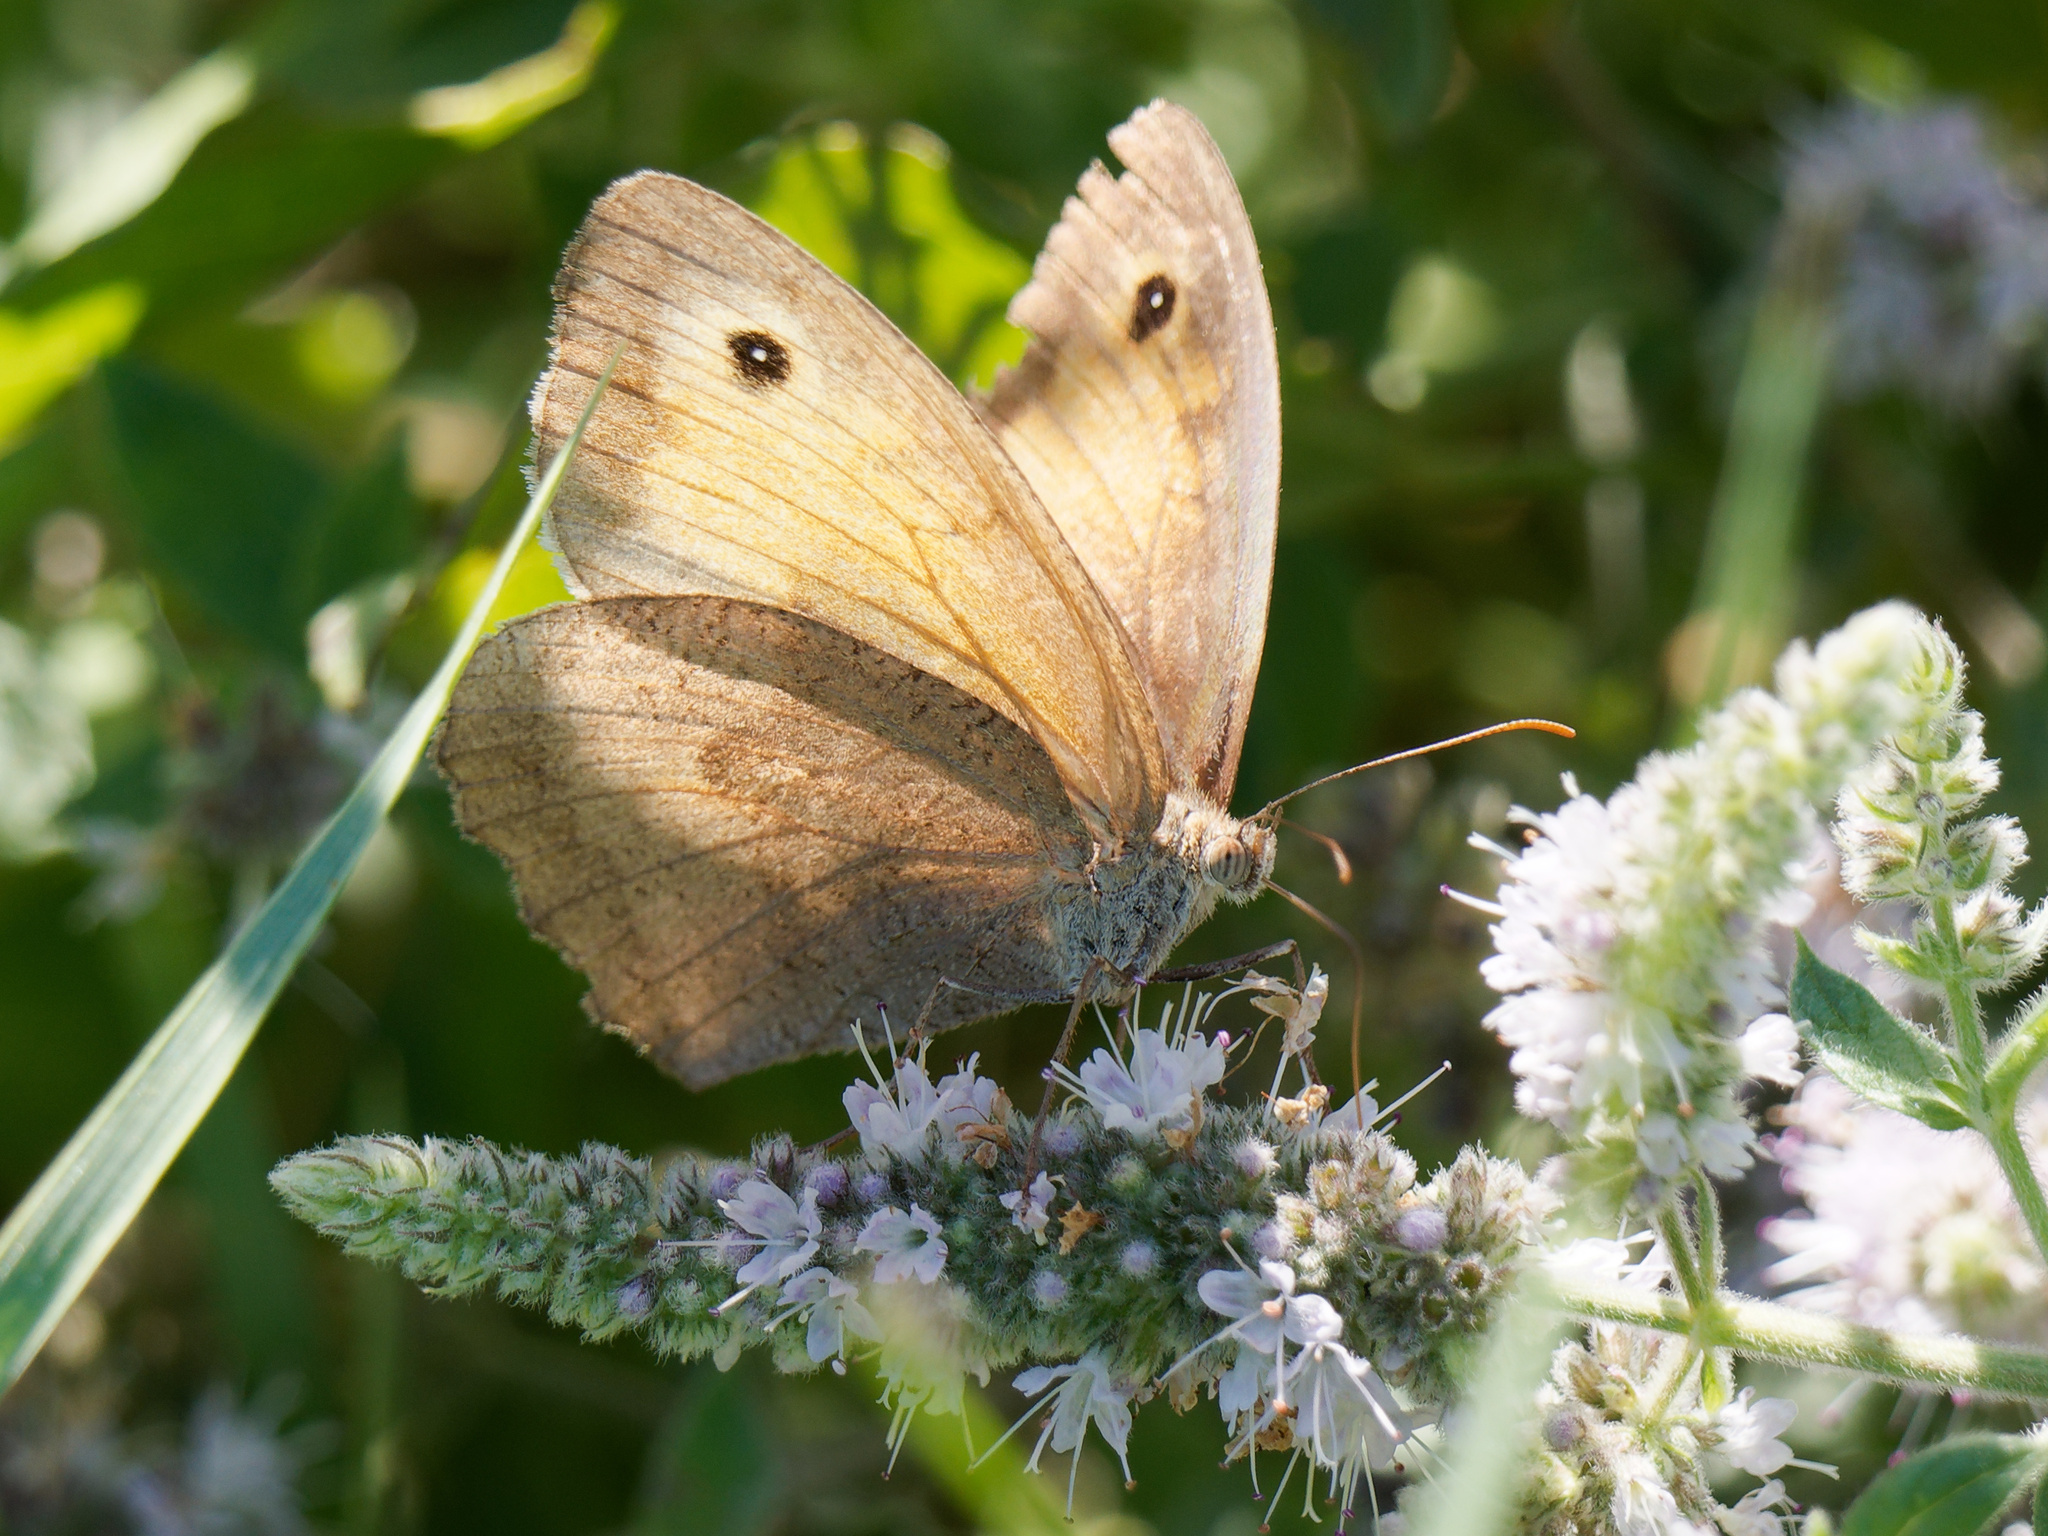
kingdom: Animalia
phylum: Arthropoda
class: Insecta
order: Lepidoptera
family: Nymphalidae
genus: Maniola
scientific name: Maniola jurtina
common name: Meadow brown
